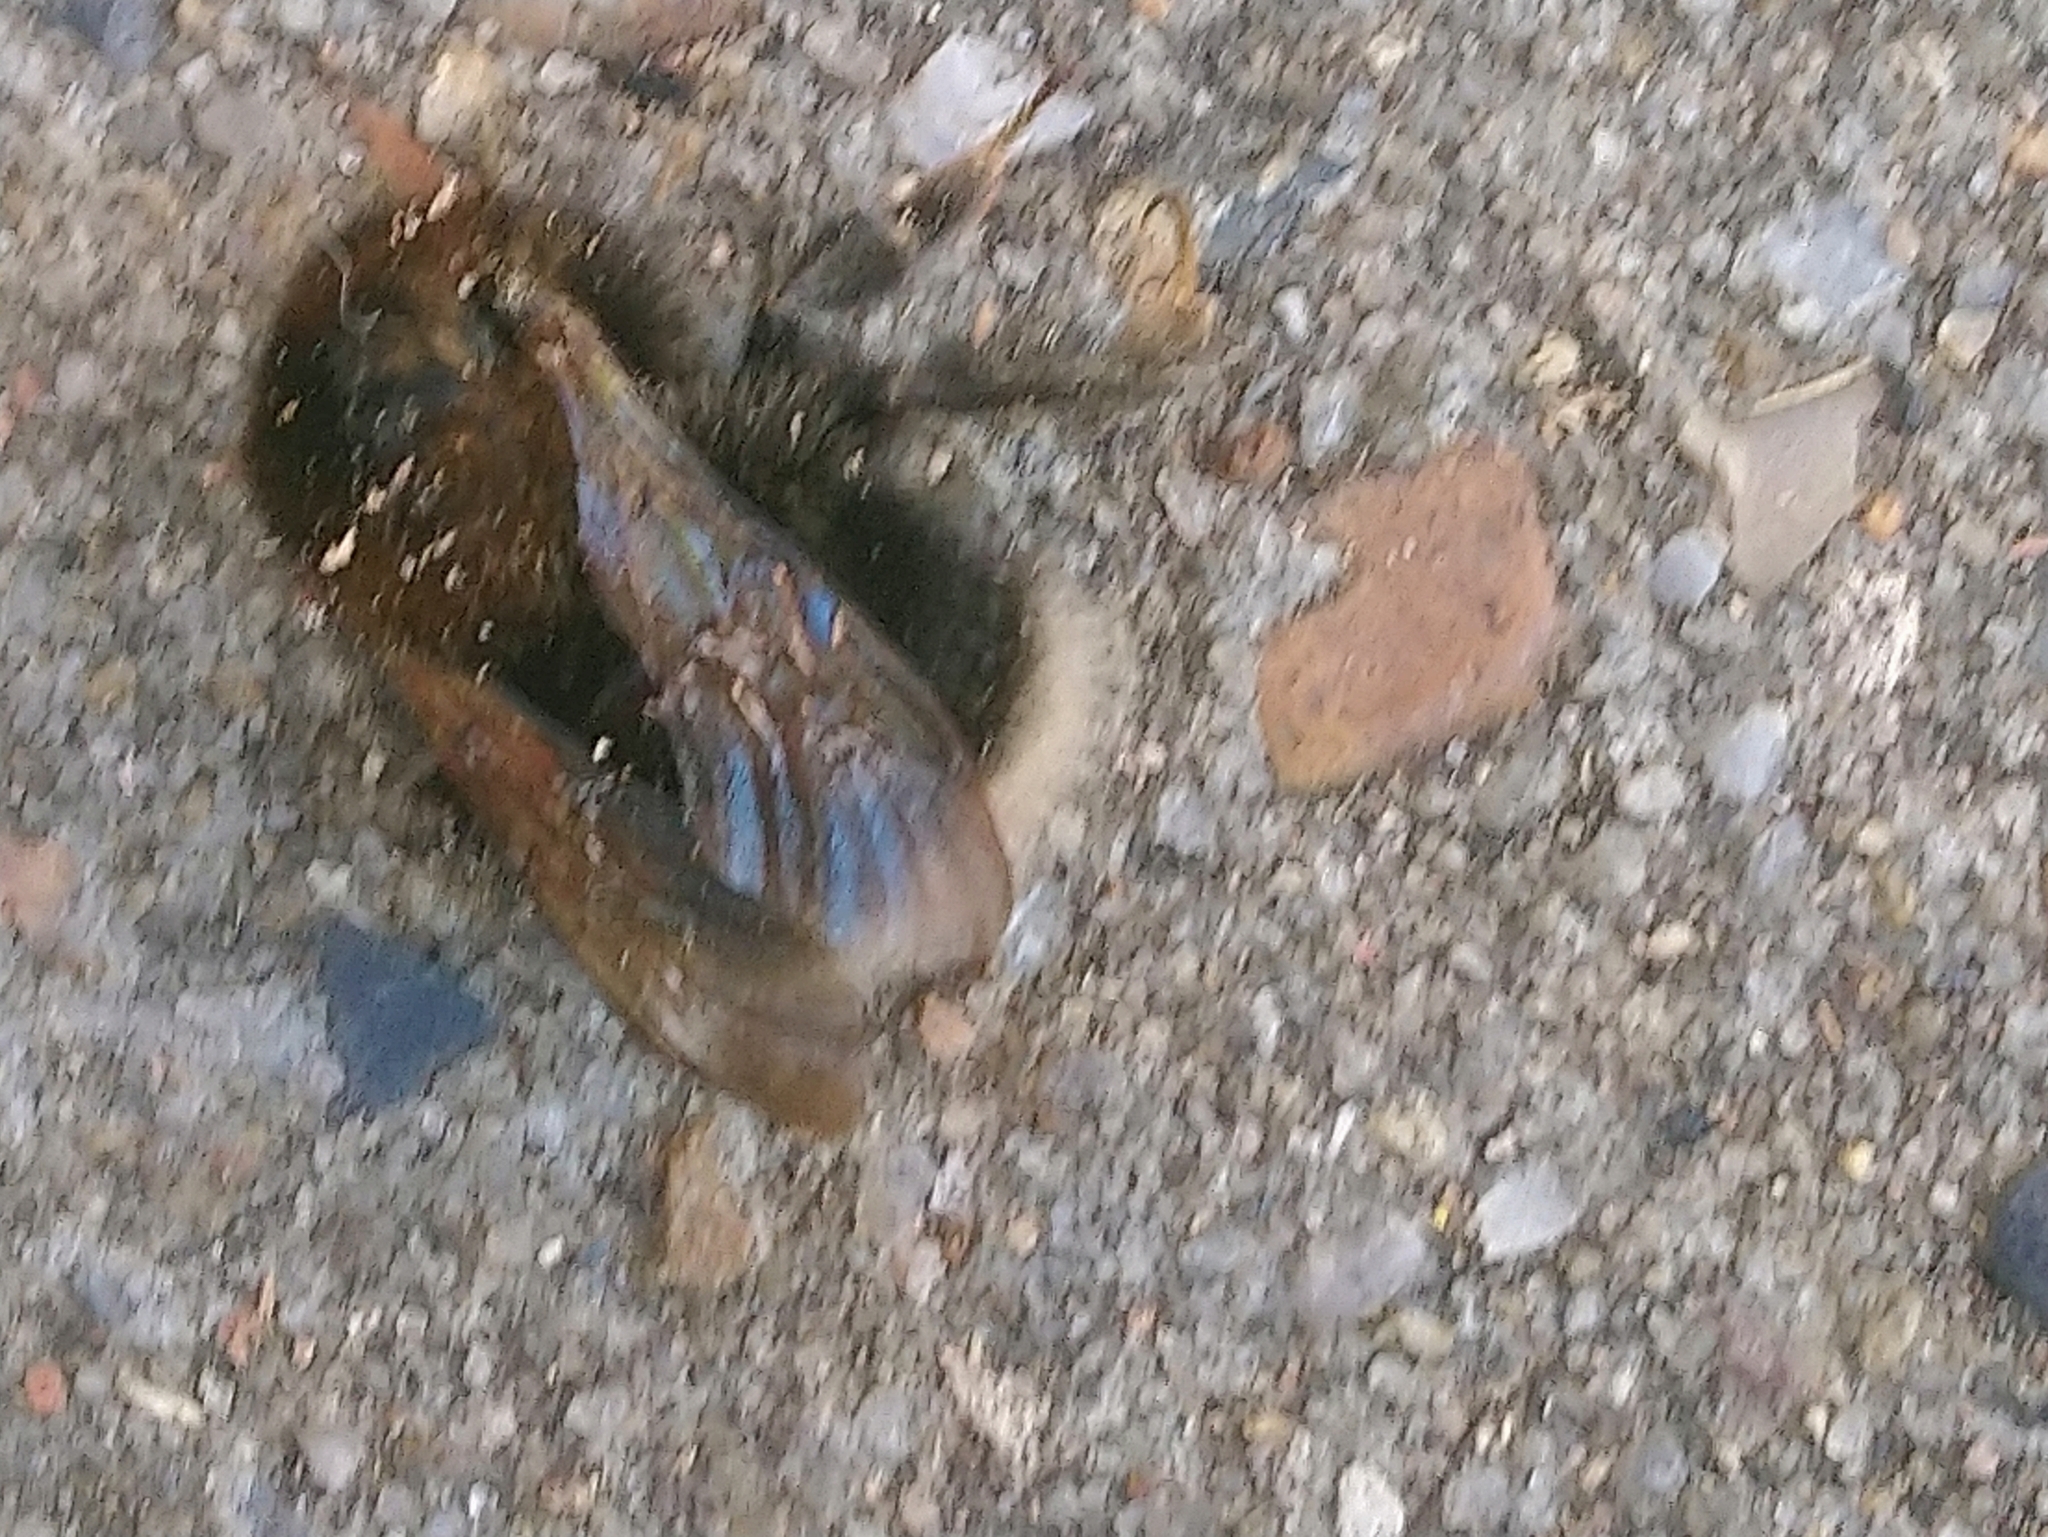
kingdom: Animalia
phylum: Arthropoda
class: Insecta
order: Hymenoptera
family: Apidae
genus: Bombus
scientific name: Bombus hypnorum
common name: New garden bumblebee
